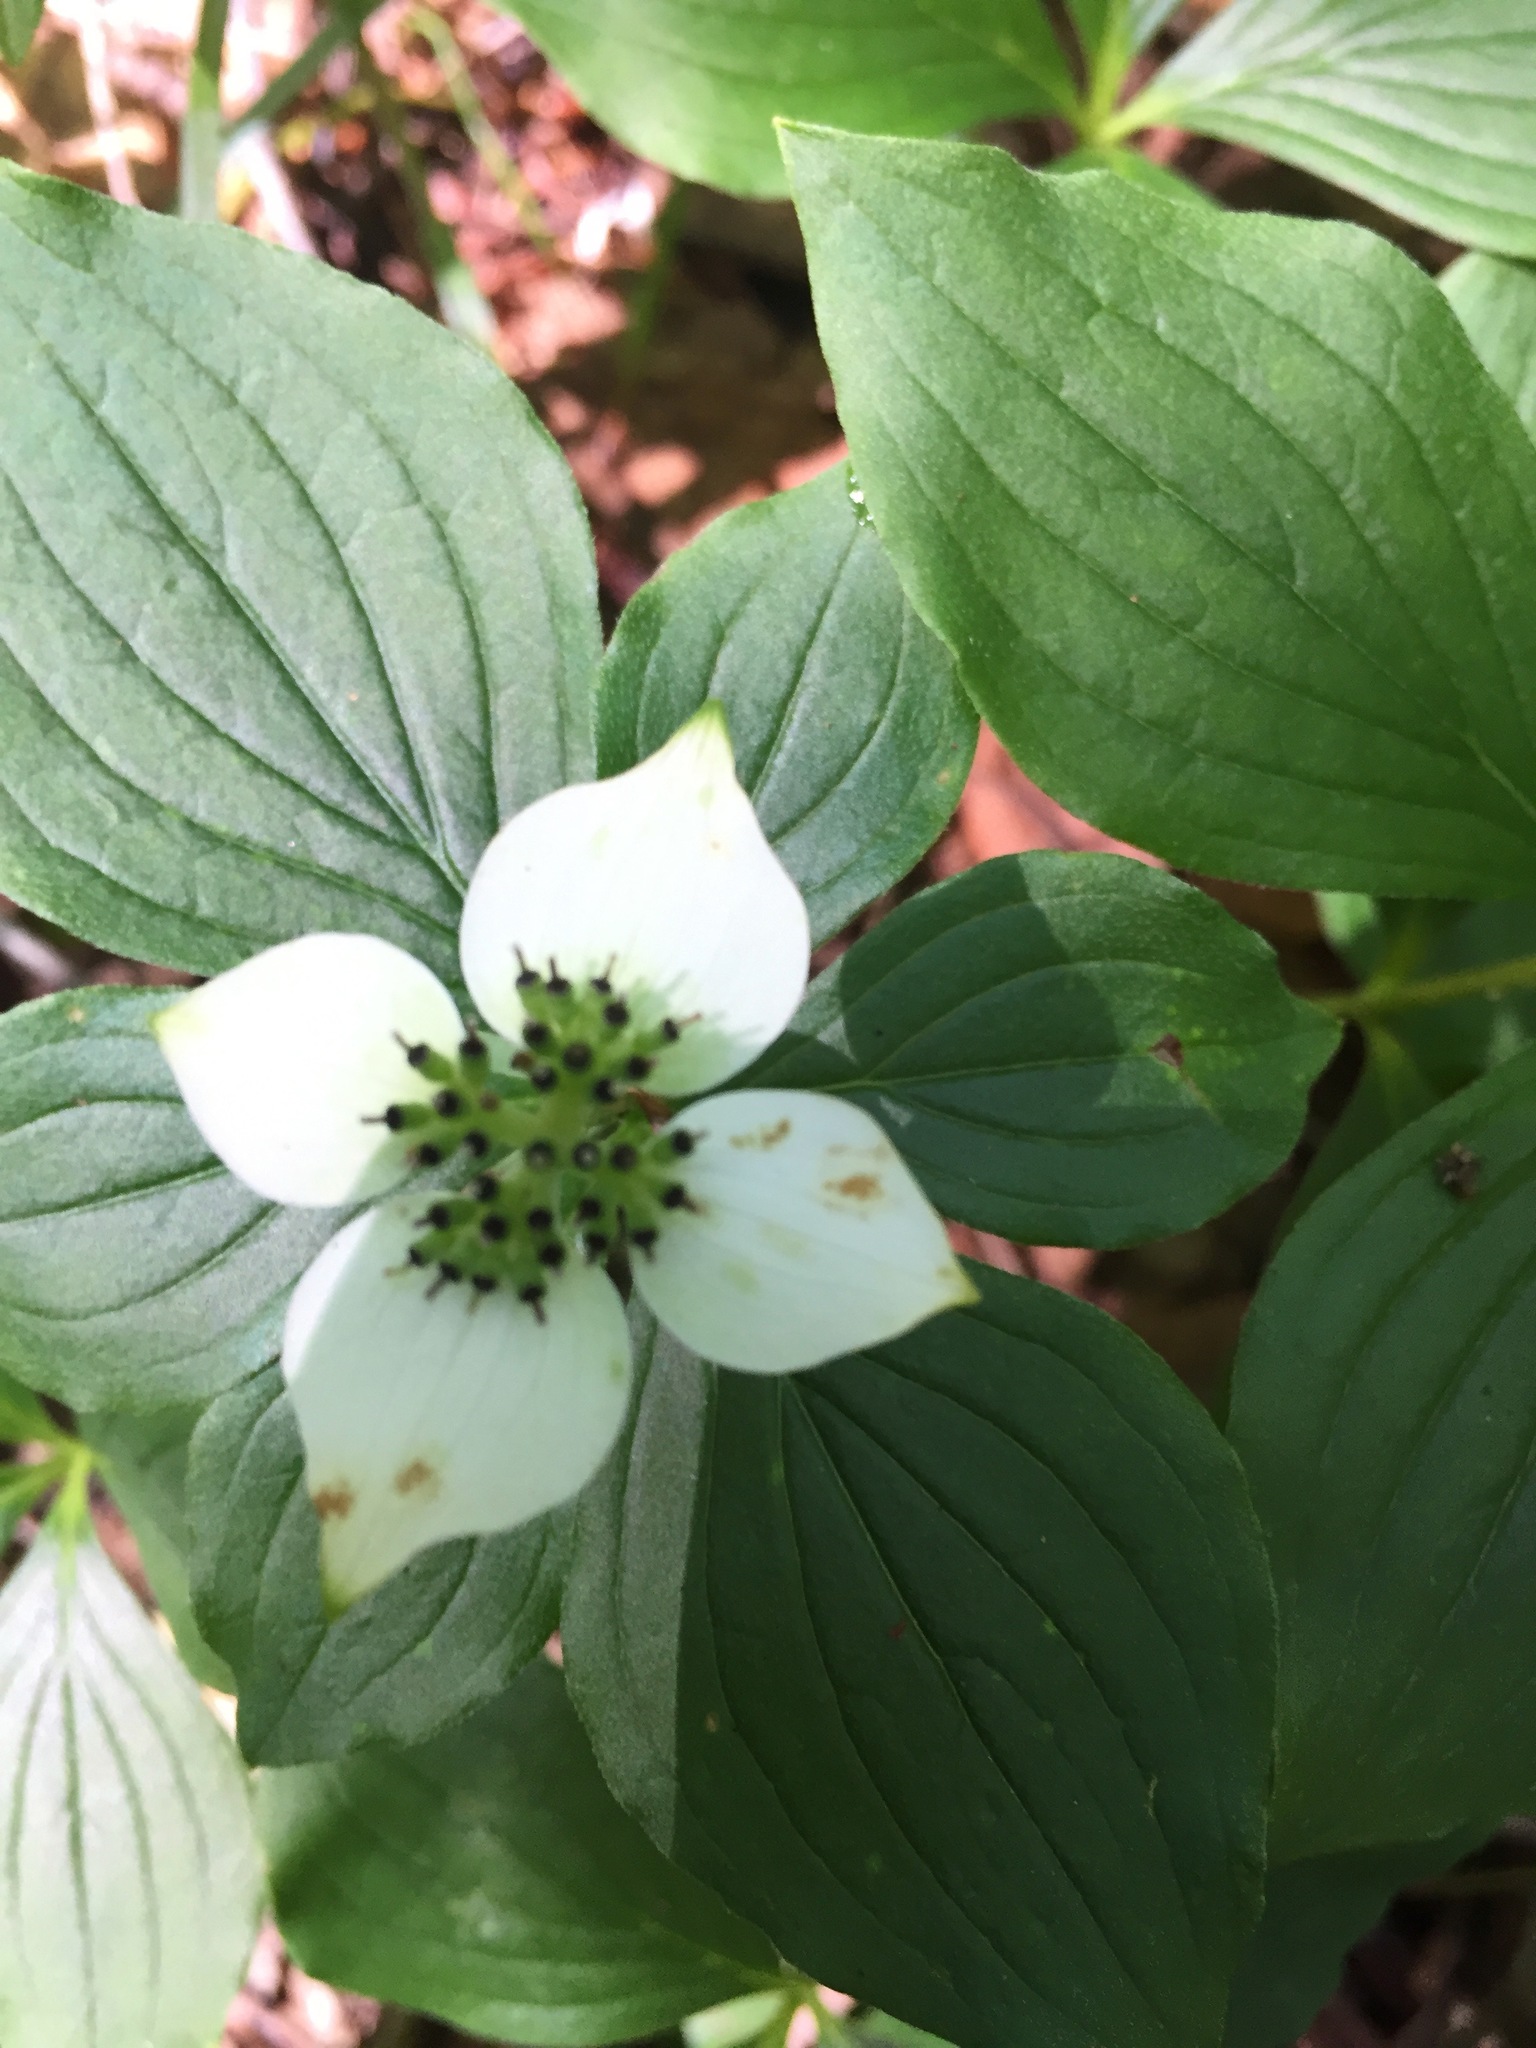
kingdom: Plantae
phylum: Tracheophyta
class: Magnoliopsida
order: Cornales
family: Cornaceae
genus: Cornus
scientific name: Cornus canadensis
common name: Creeping dogwood
